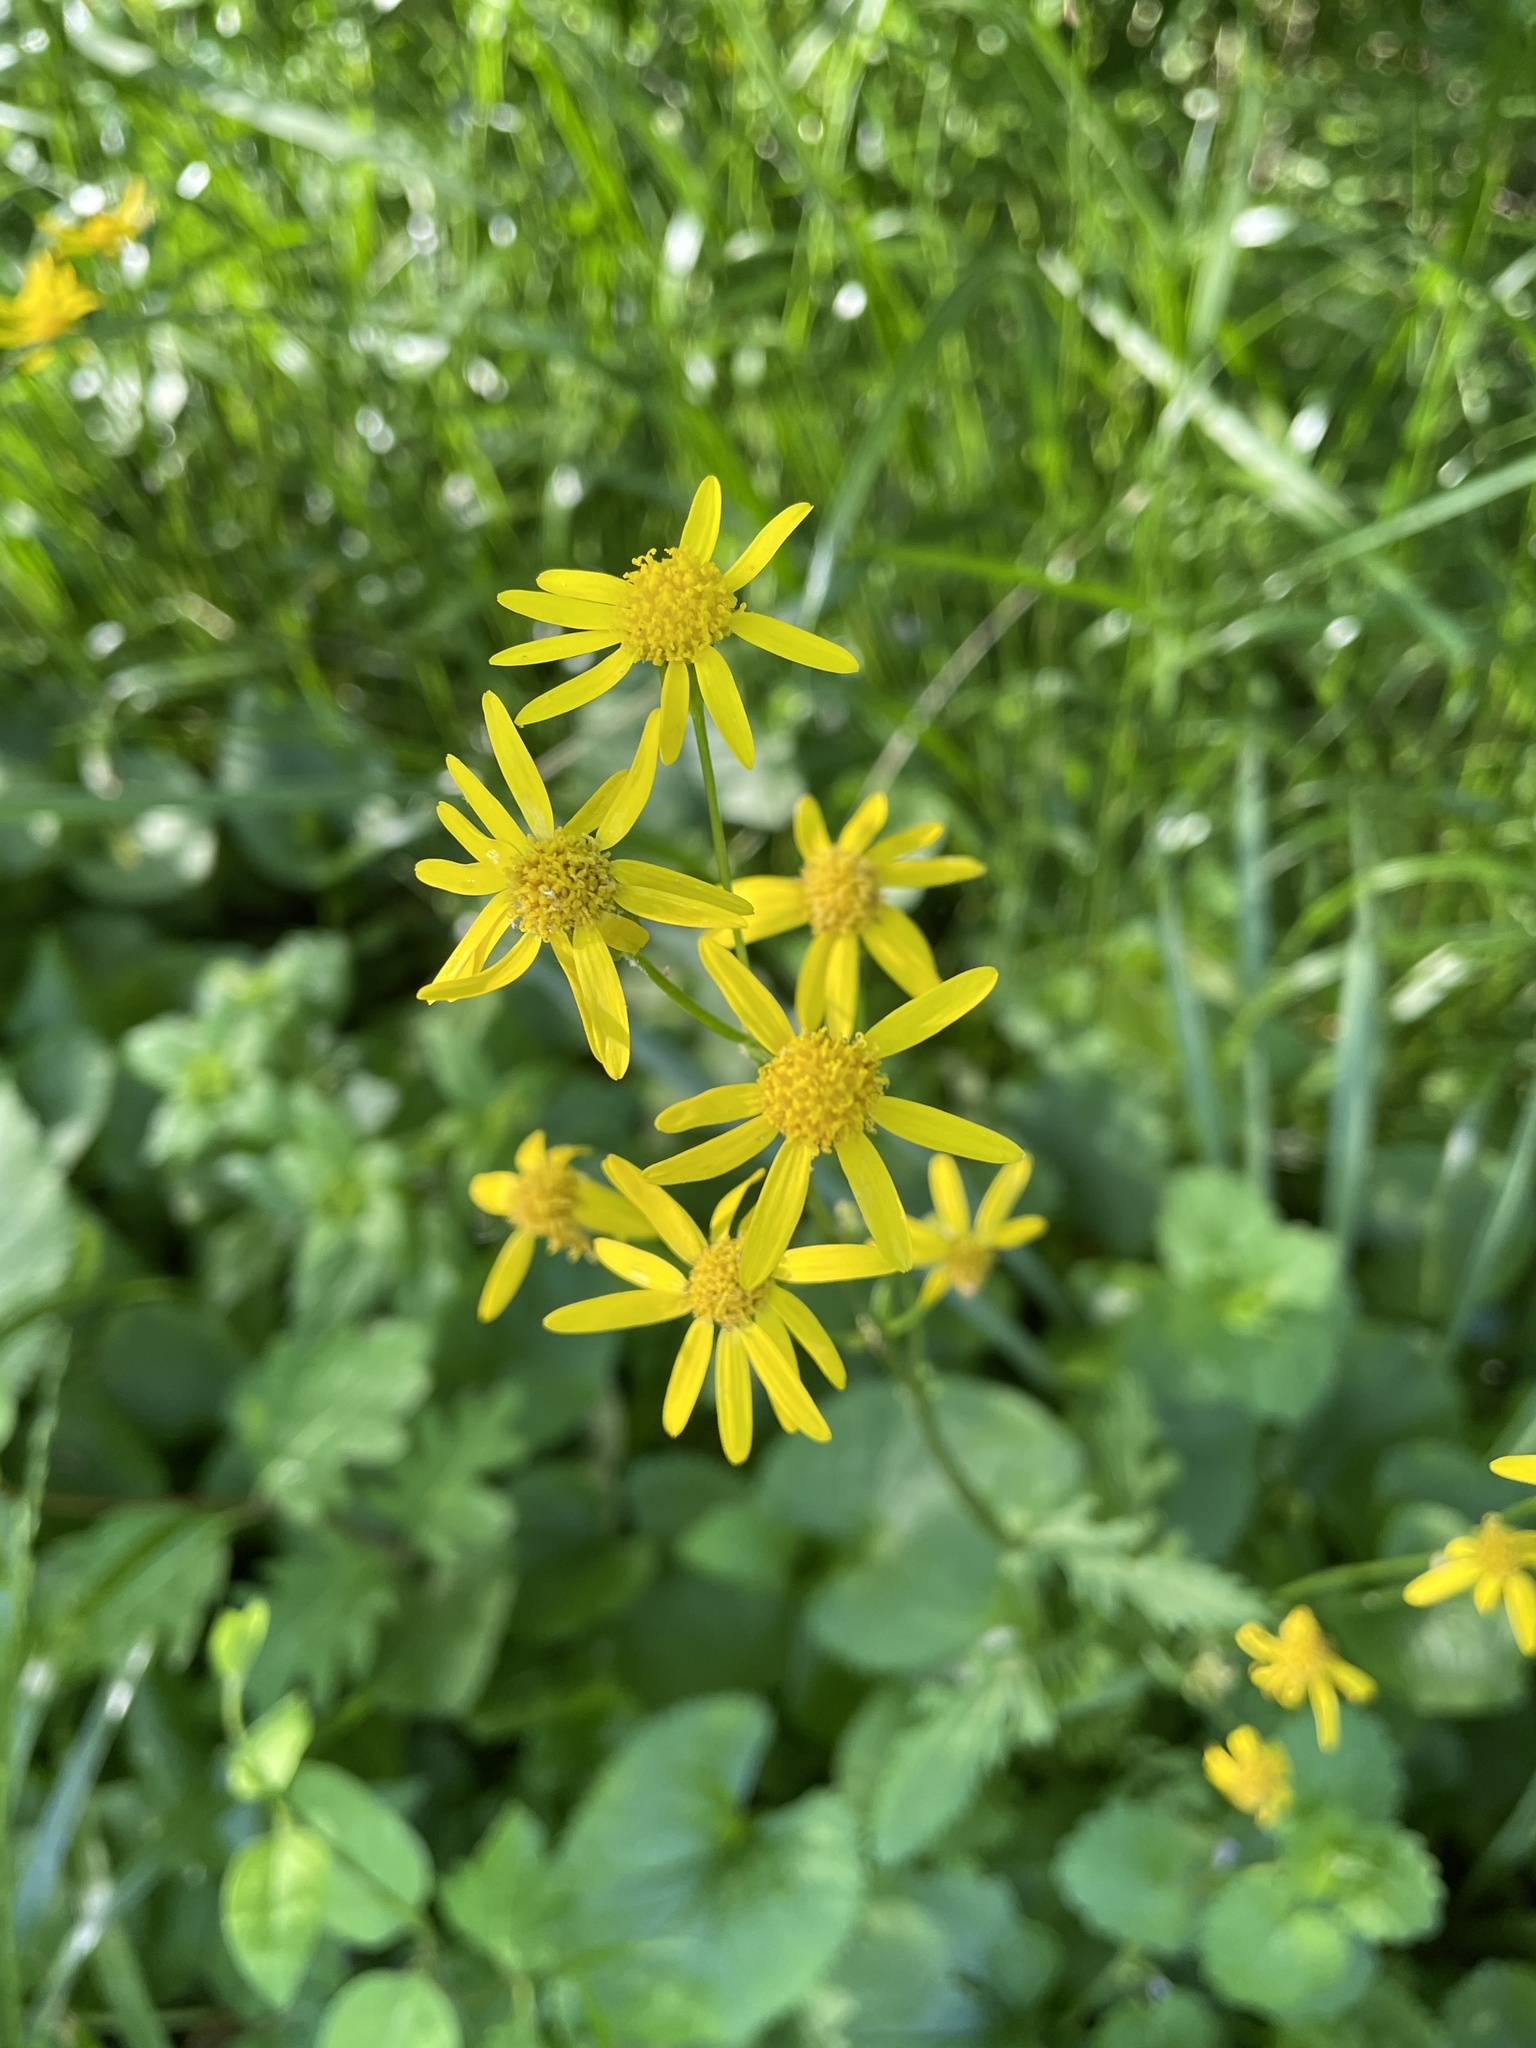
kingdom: Plantae
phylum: Tracheophyta
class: Magnoliopsida
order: Asterales
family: Asteraceae
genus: Packera
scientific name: Packera aurea
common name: Golden groundsel
